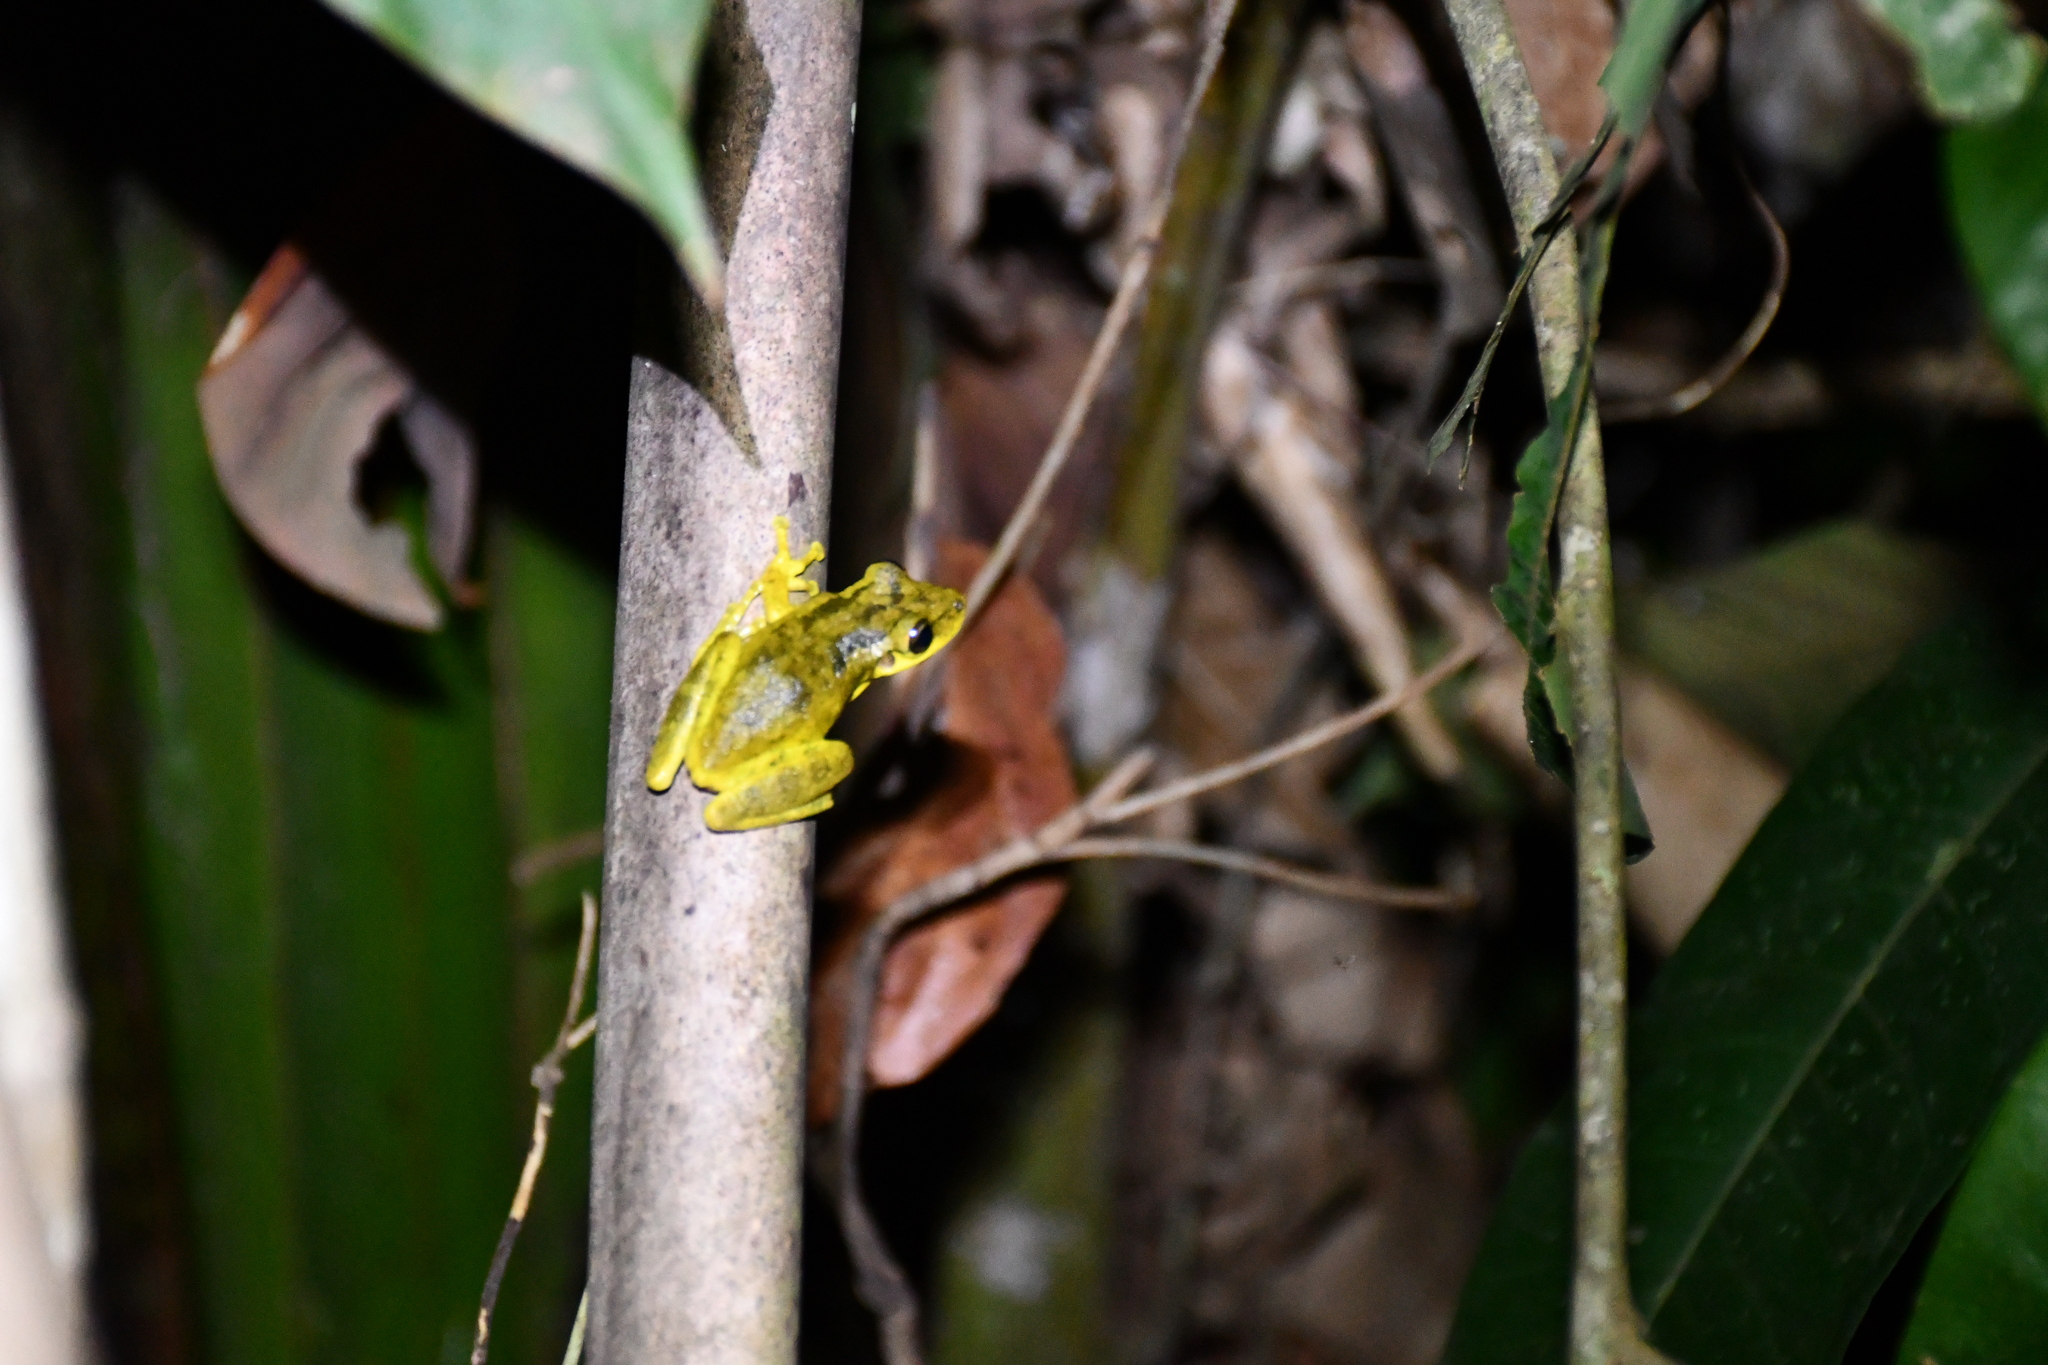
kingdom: Animalia
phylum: Chordata
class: Amphibia
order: Anura
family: Hylidae
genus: Scinax
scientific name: Scinax ruber
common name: Red snouted treefrog
